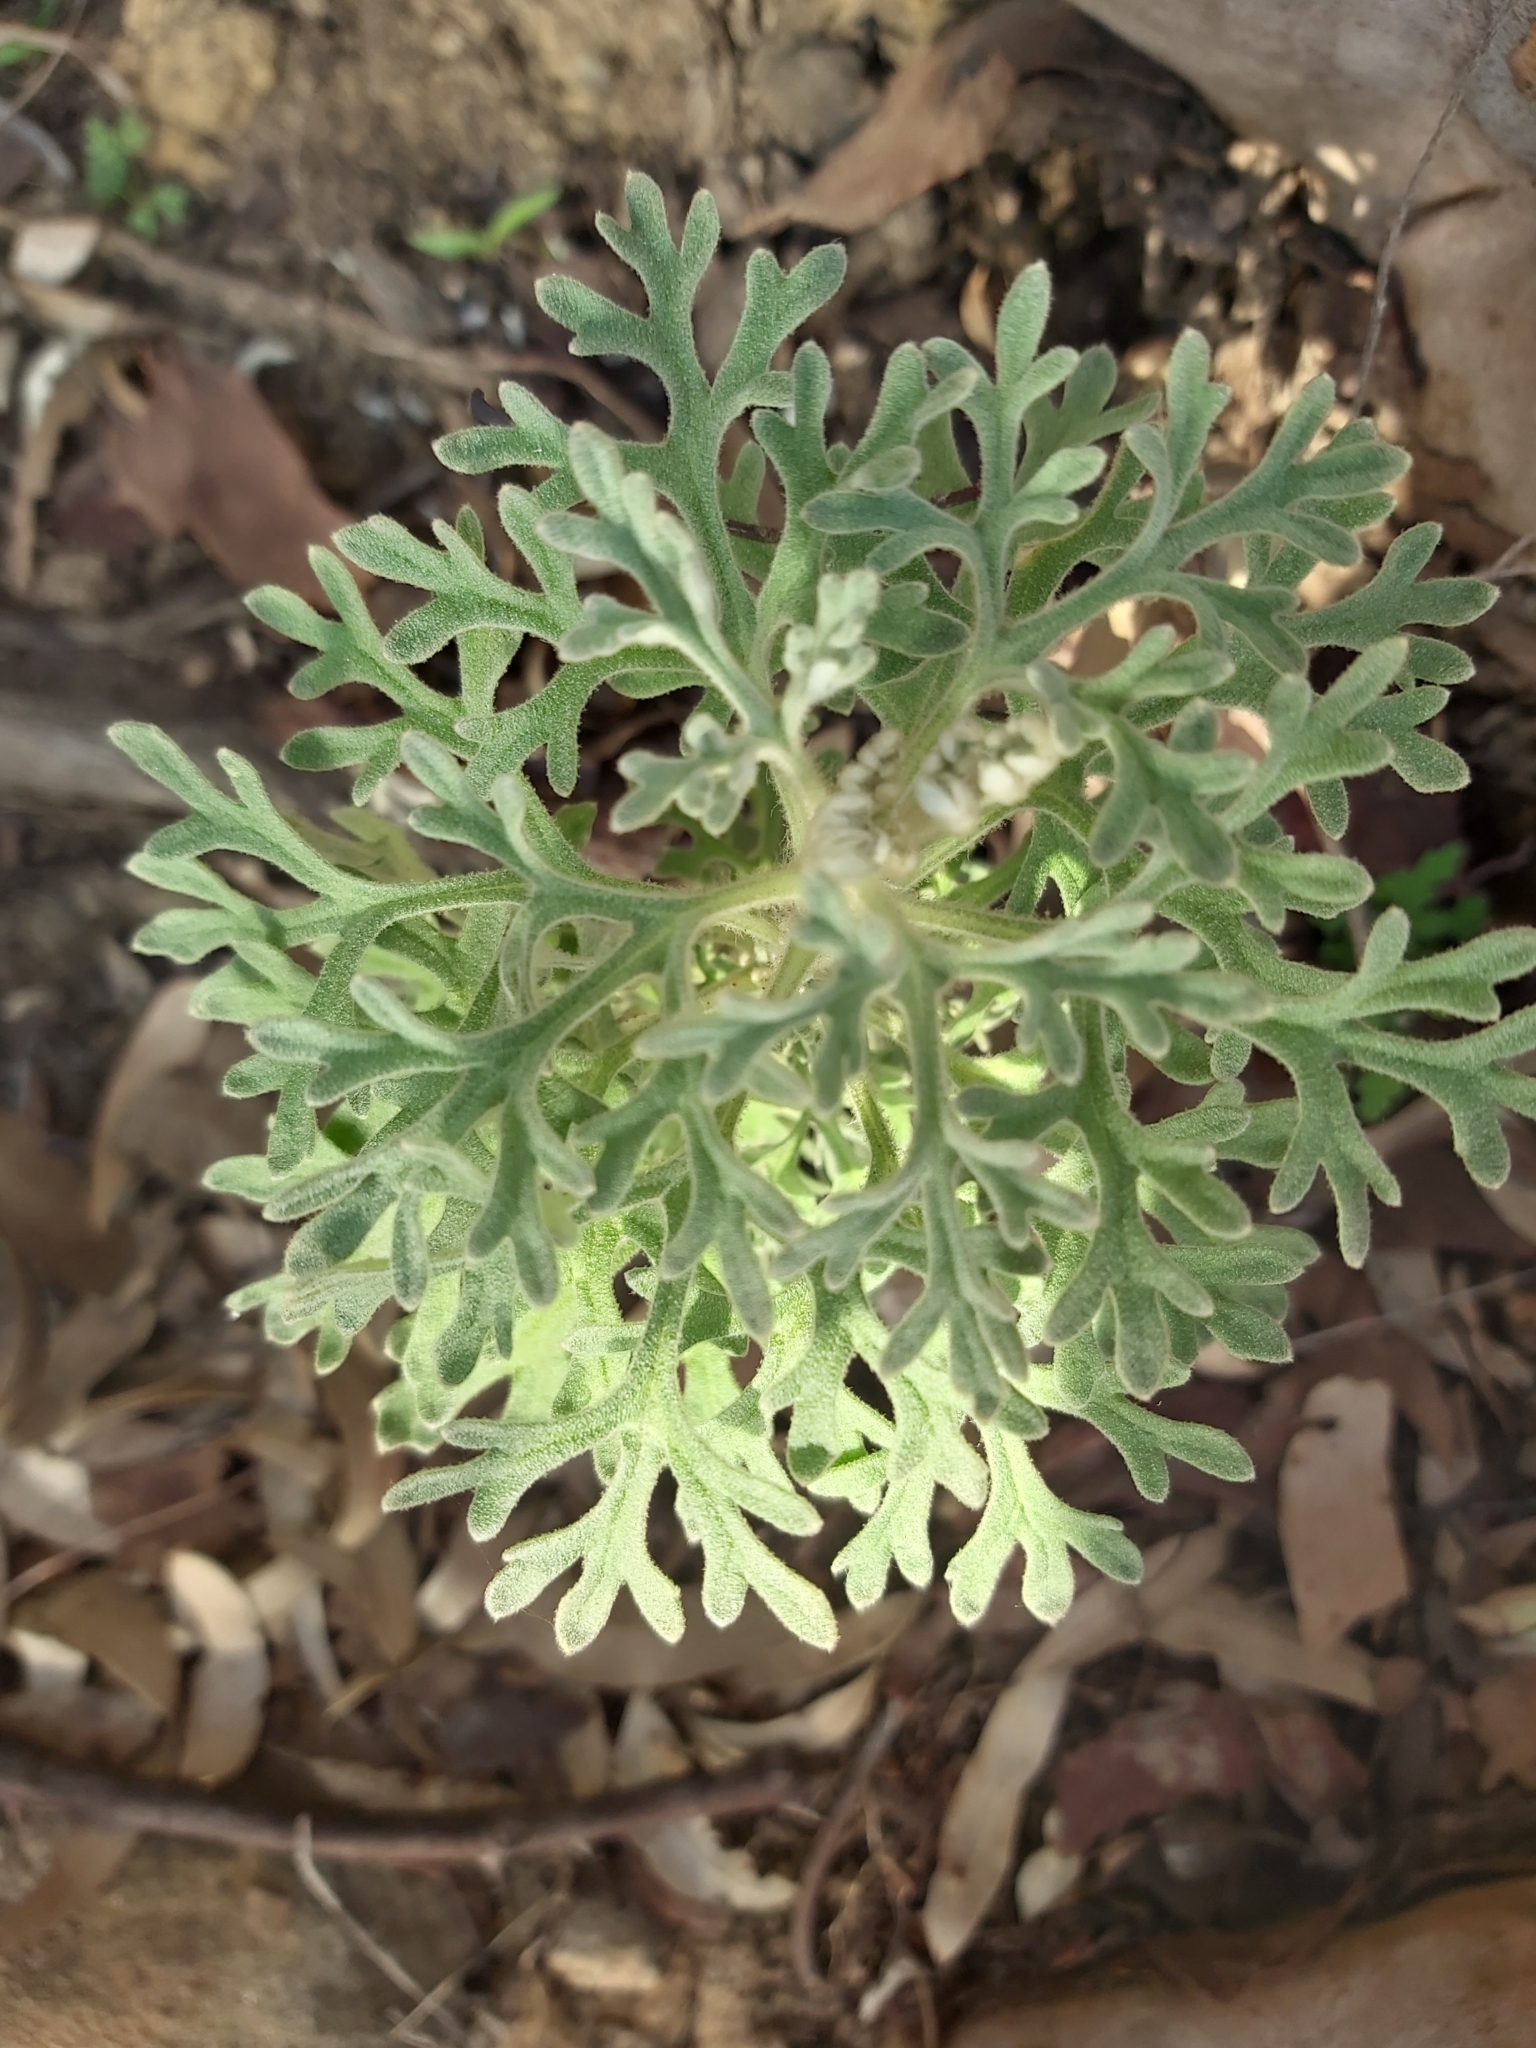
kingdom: Plantae
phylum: Tracheophyta
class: Magnoliopsida
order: Apiales
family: Apiaceae
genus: Actinotus
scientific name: Actinotus helianthi
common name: Flannel-flower
